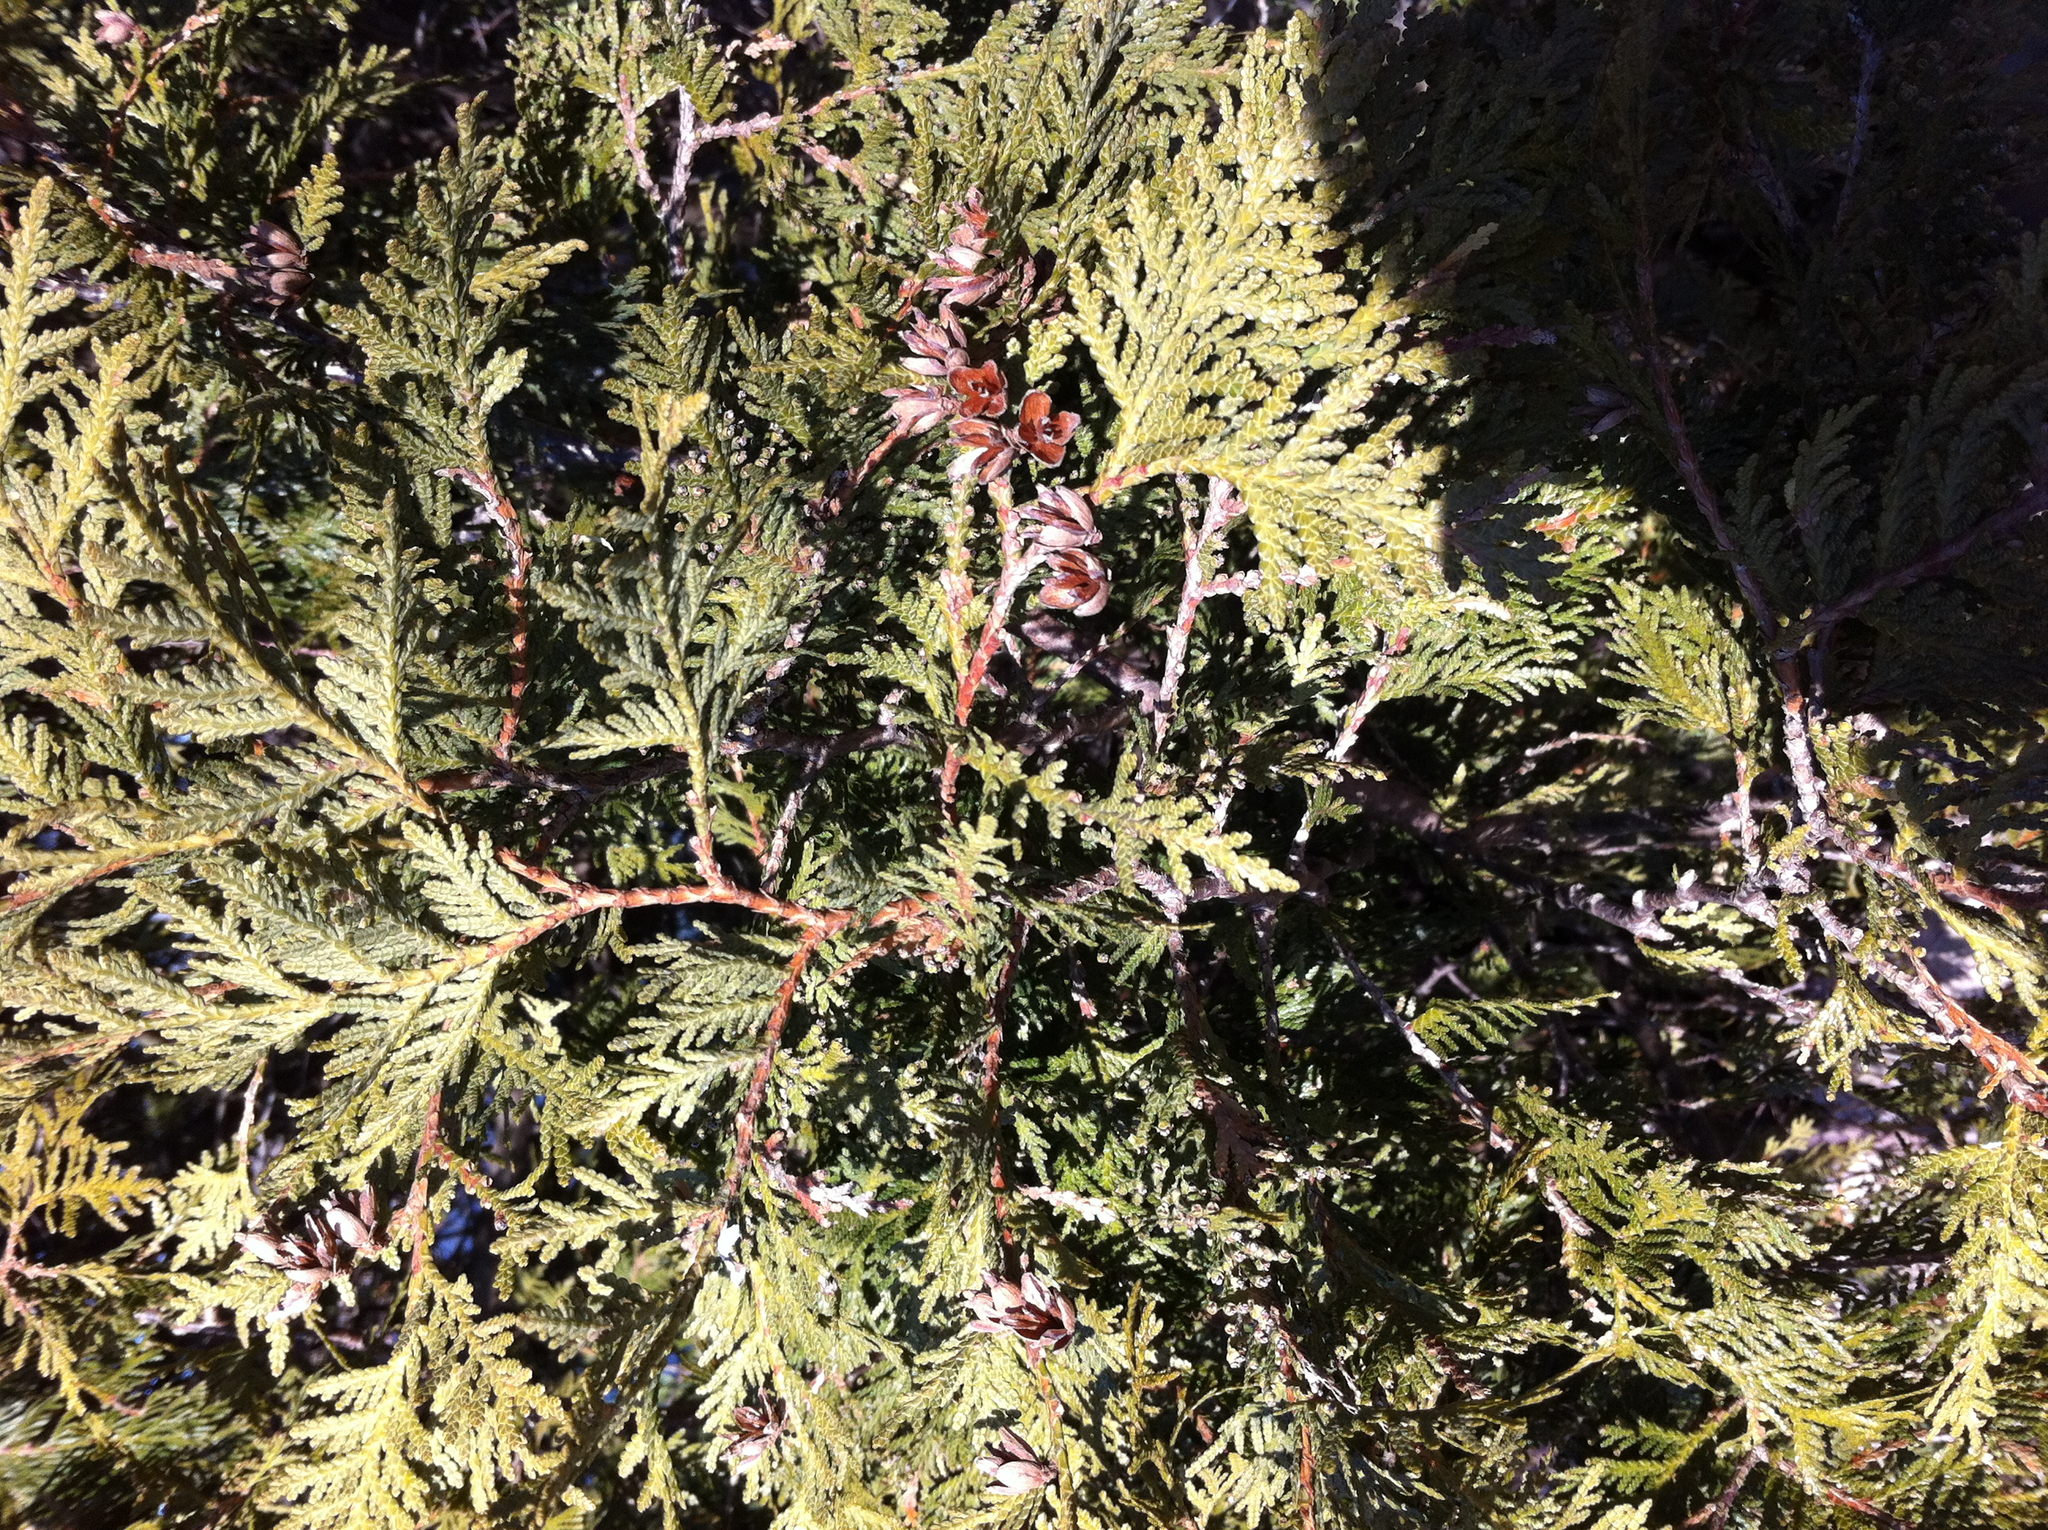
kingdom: Plantae
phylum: Tracheophyta
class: Pinopsida
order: Pinales
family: Cupressaceae
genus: Thuja
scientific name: Thuja occidentalis
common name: Northern white-cedar
